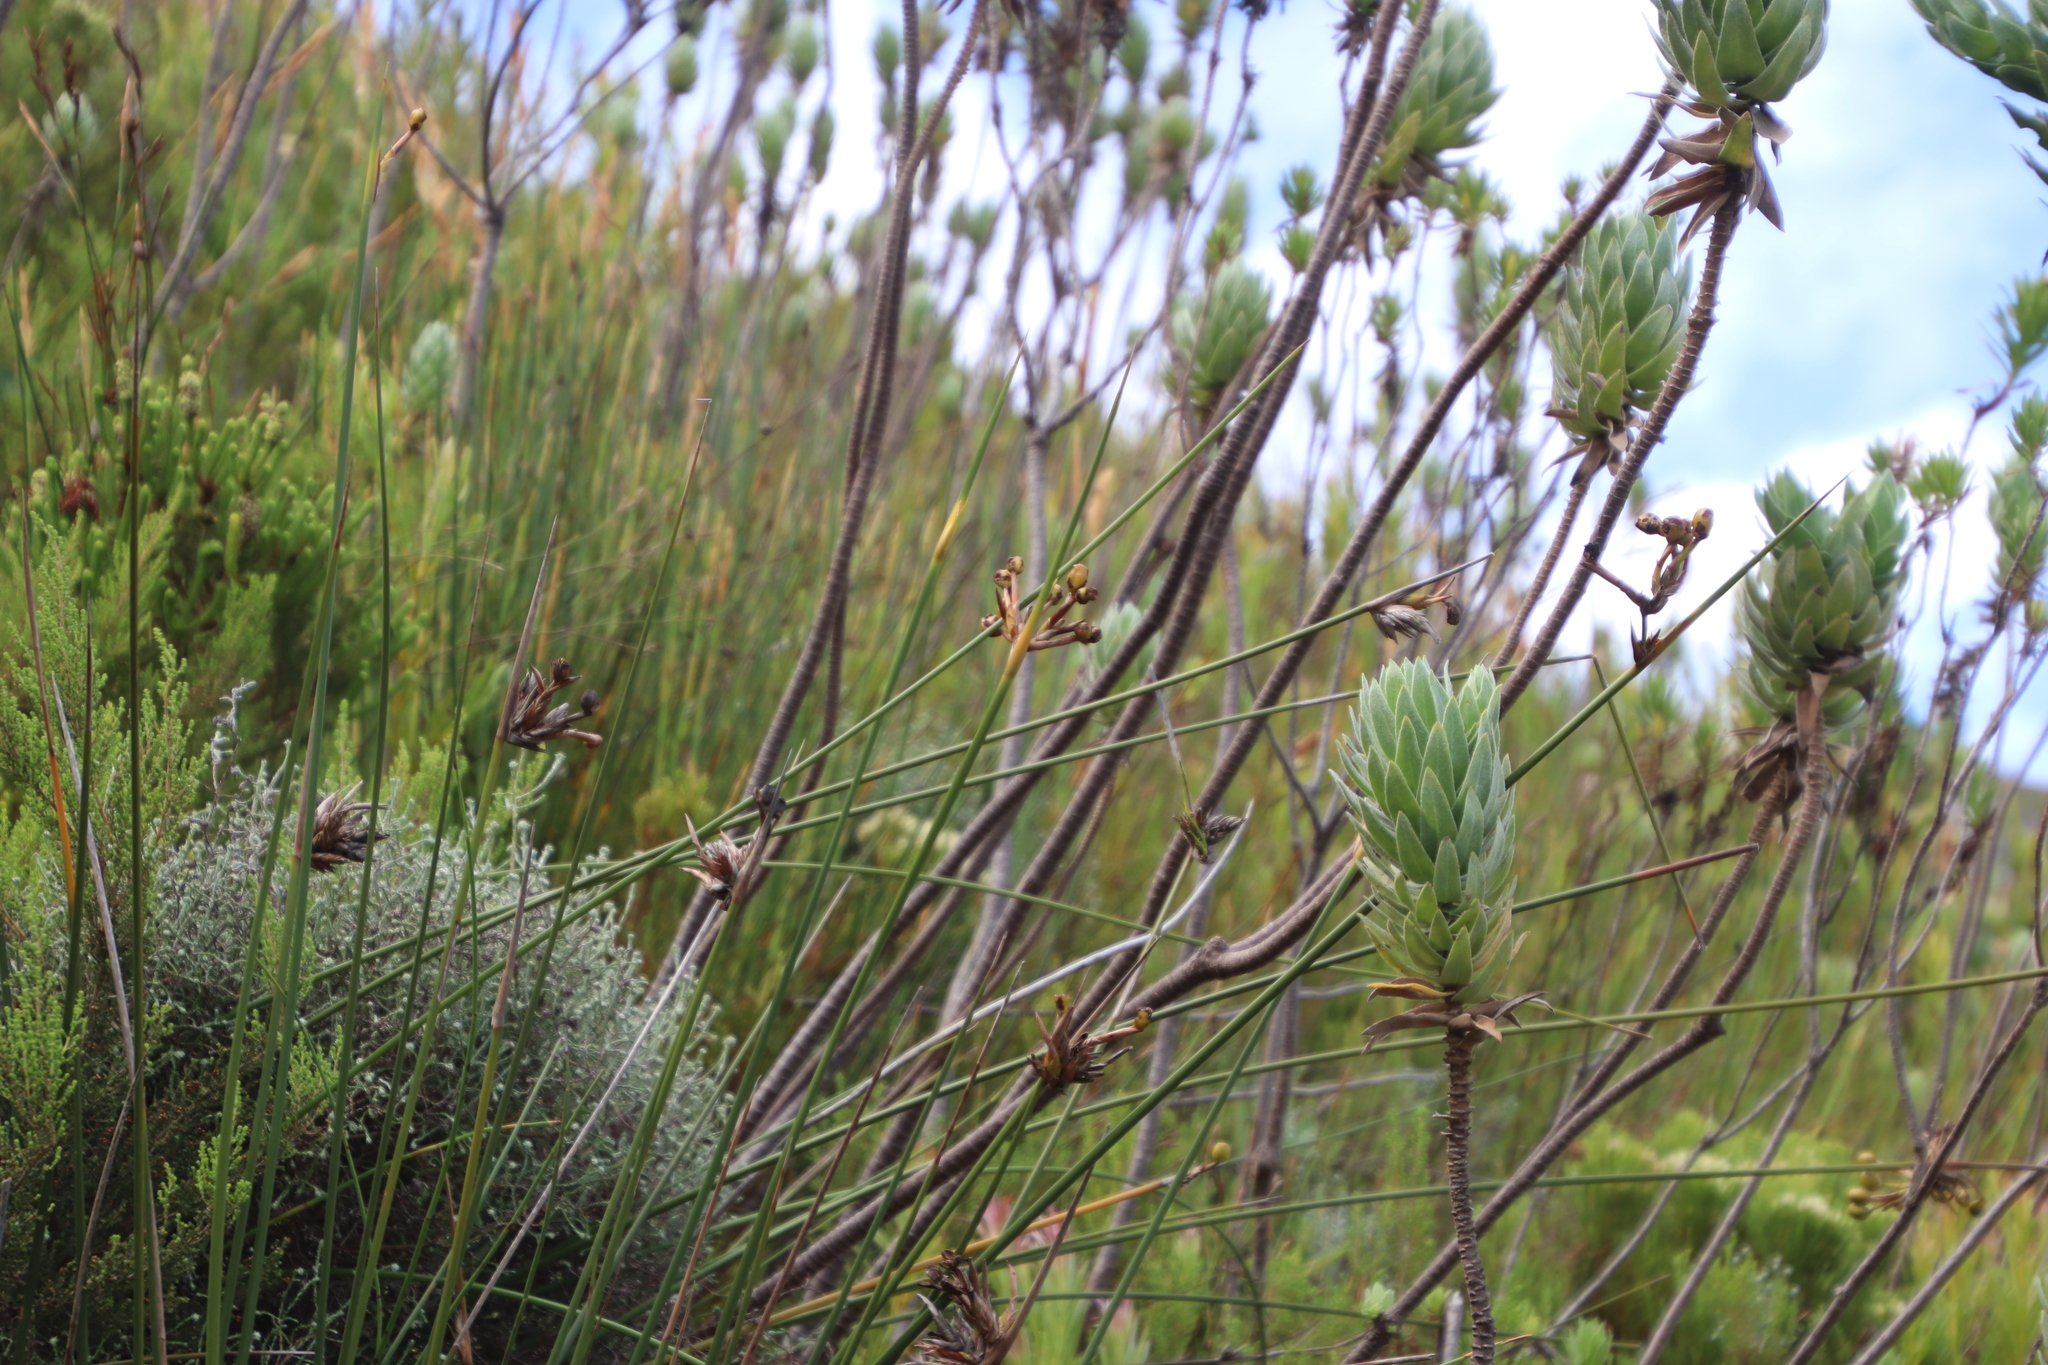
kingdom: Plantae
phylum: Tracheophyta
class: Liliopsida
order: Asparagales
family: Iridaceae
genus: Bobartia
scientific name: Bobartia indica
